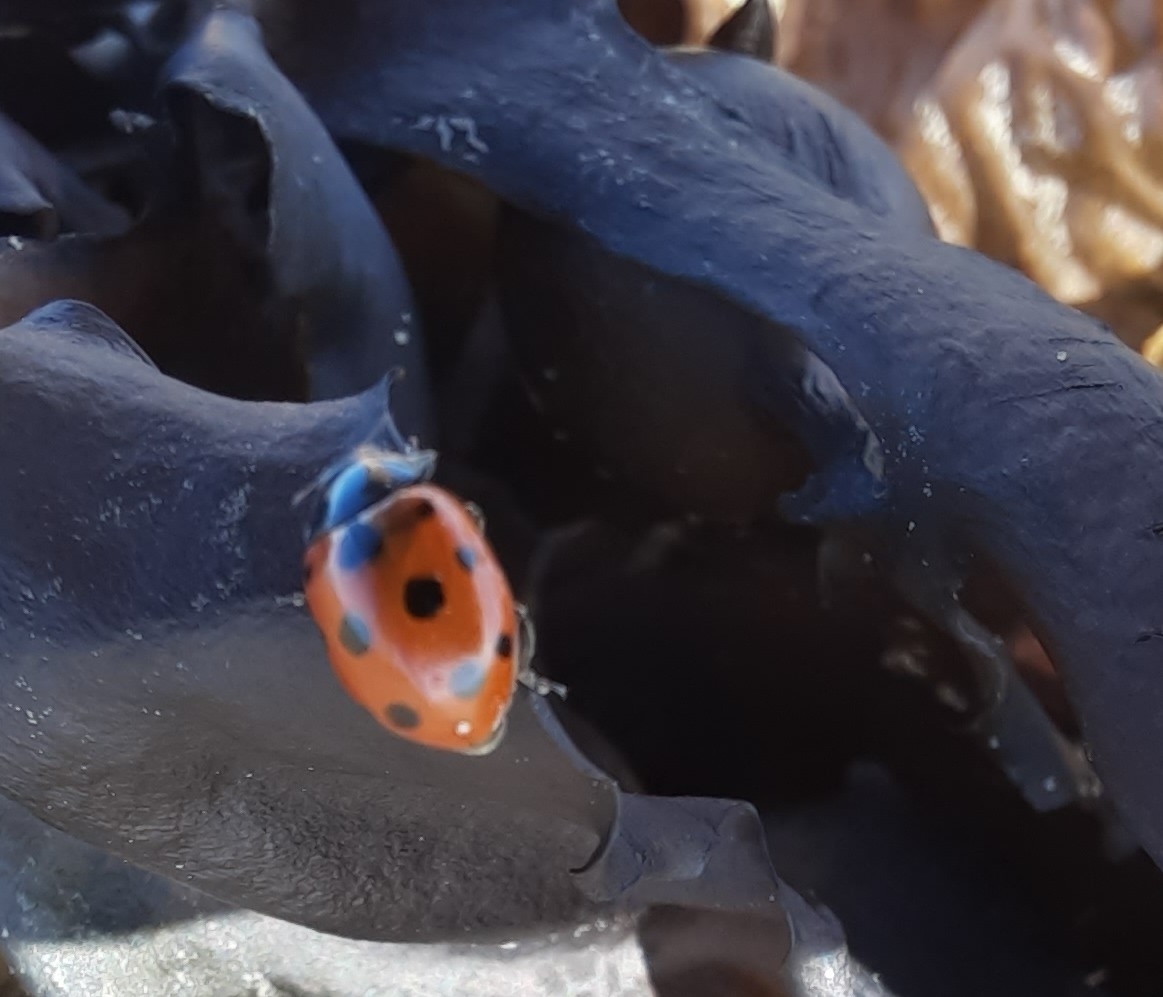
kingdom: Animalia
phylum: Arthropoda
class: Insecta
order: Coleoptera
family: Coccinellidae
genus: Coccinella
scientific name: Coccinella undecimpunctata
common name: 11-spot ladybird
